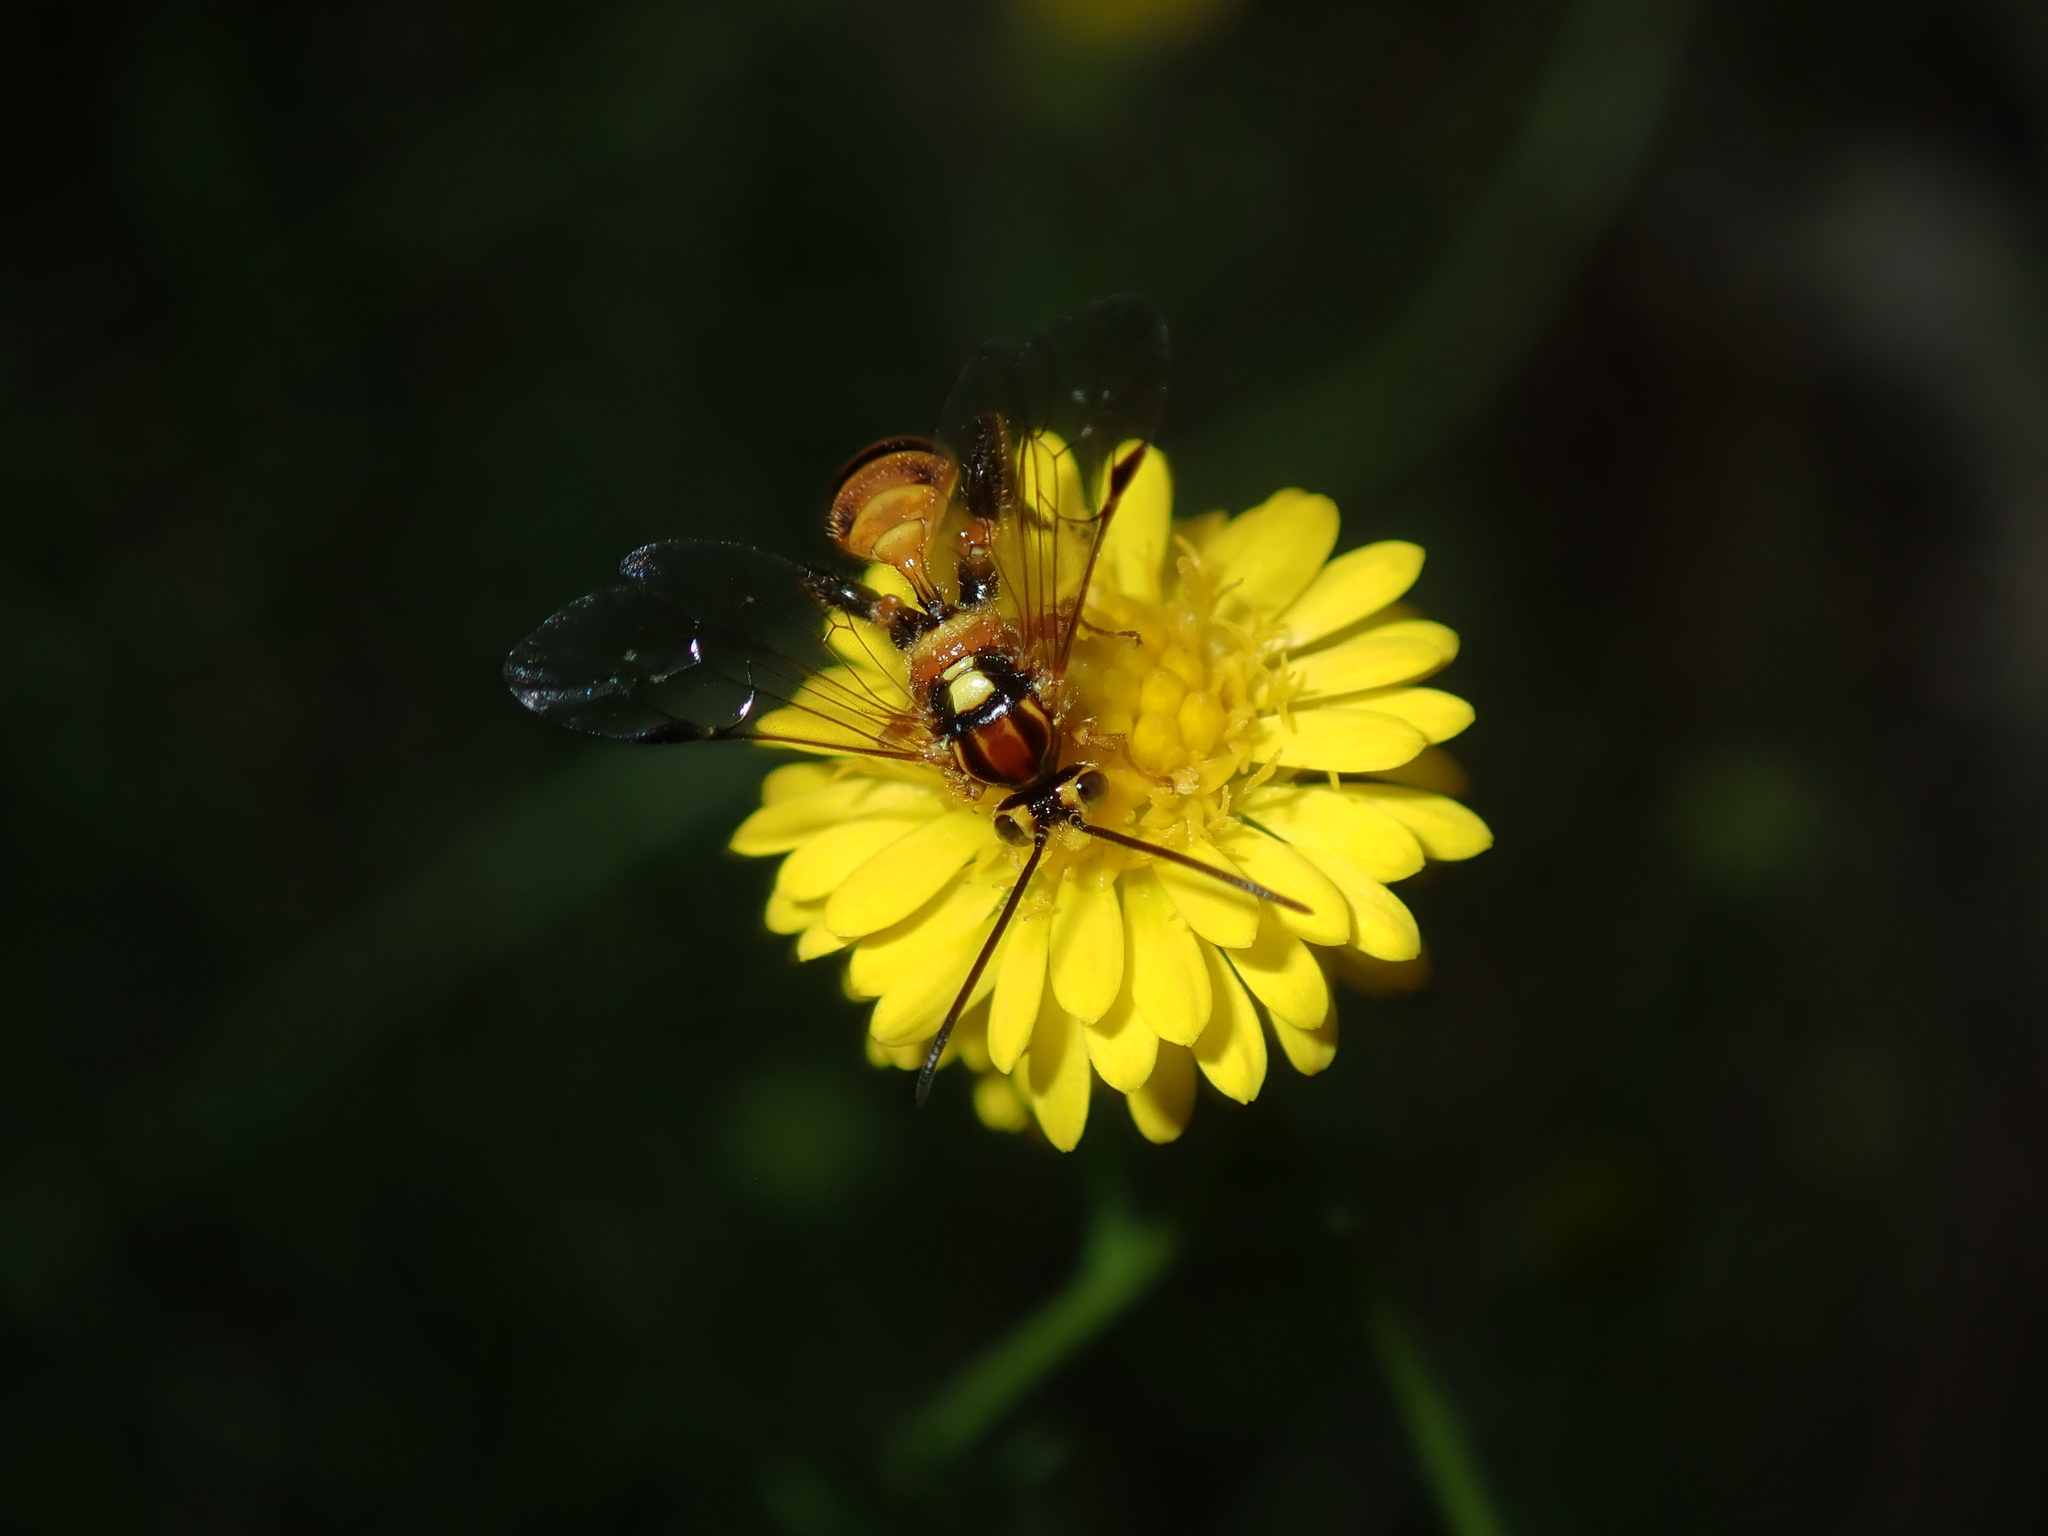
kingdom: Animalia
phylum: Arthropoda
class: Insecta
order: Hymenoptera
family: Ichneumonidae
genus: Labium
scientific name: Labium pilosum
